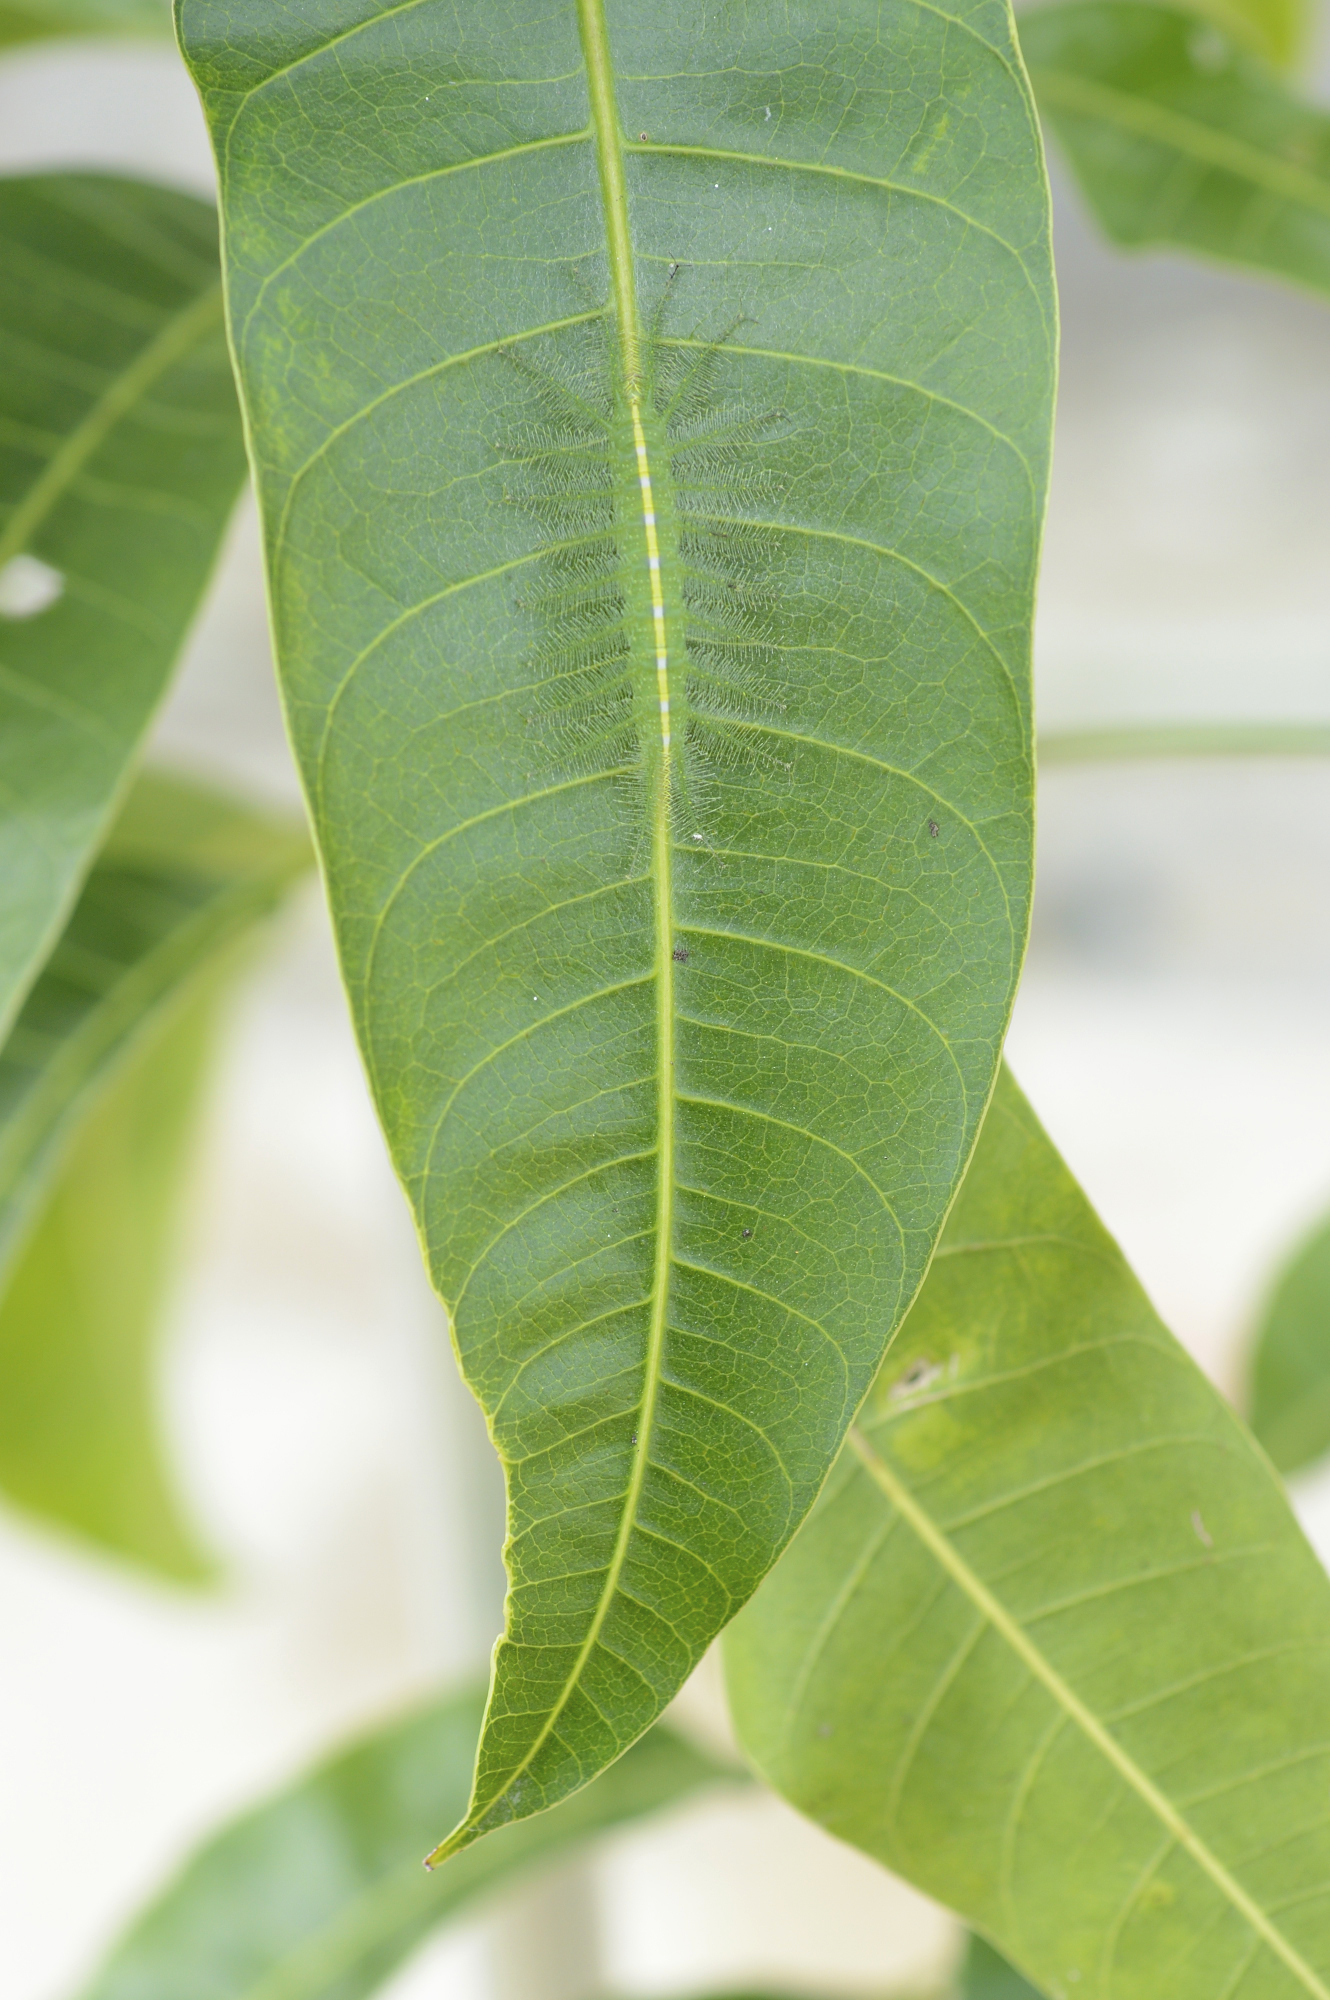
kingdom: Animalia
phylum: Arthropoda
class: Insecta
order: Lepidoptera
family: Nymphalidae
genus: Euthalia
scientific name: Euthalia aconthea
